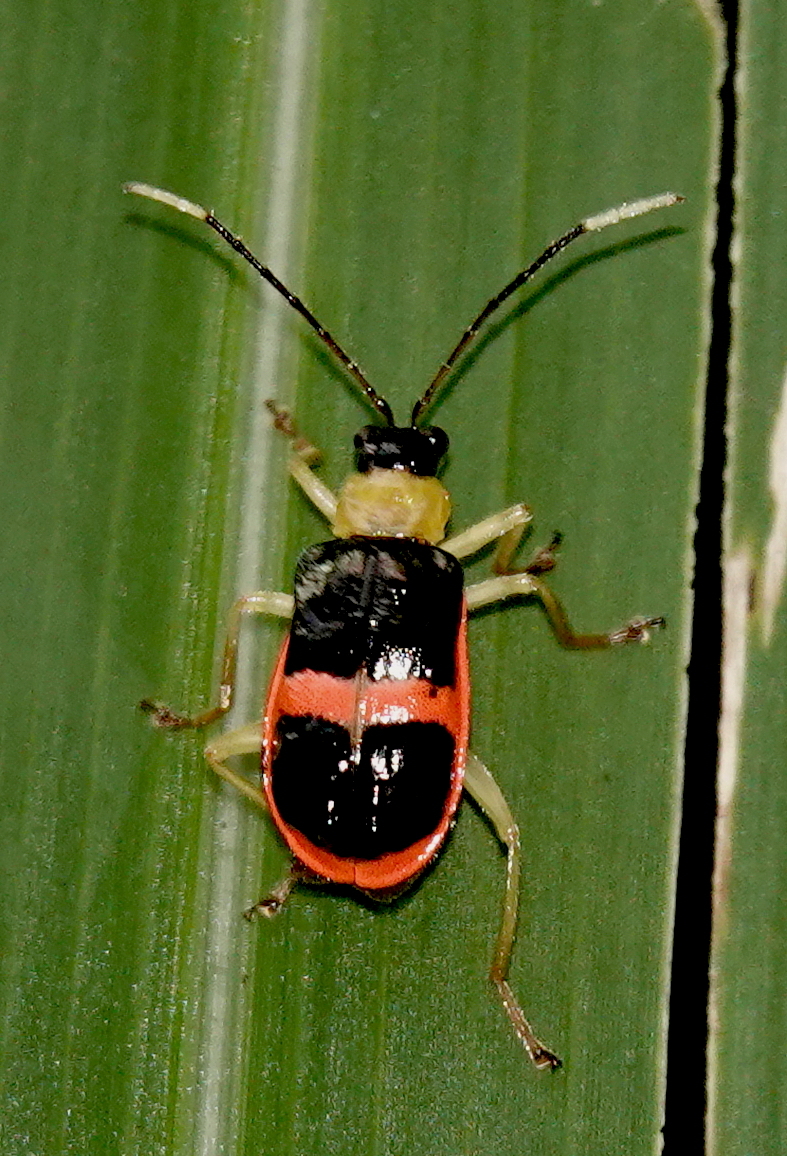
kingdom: Animalia
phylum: Arthropoda
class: Insecta
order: Coleoptera
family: Chrysomelidae
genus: Paratriarius
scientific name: Paratriarius
